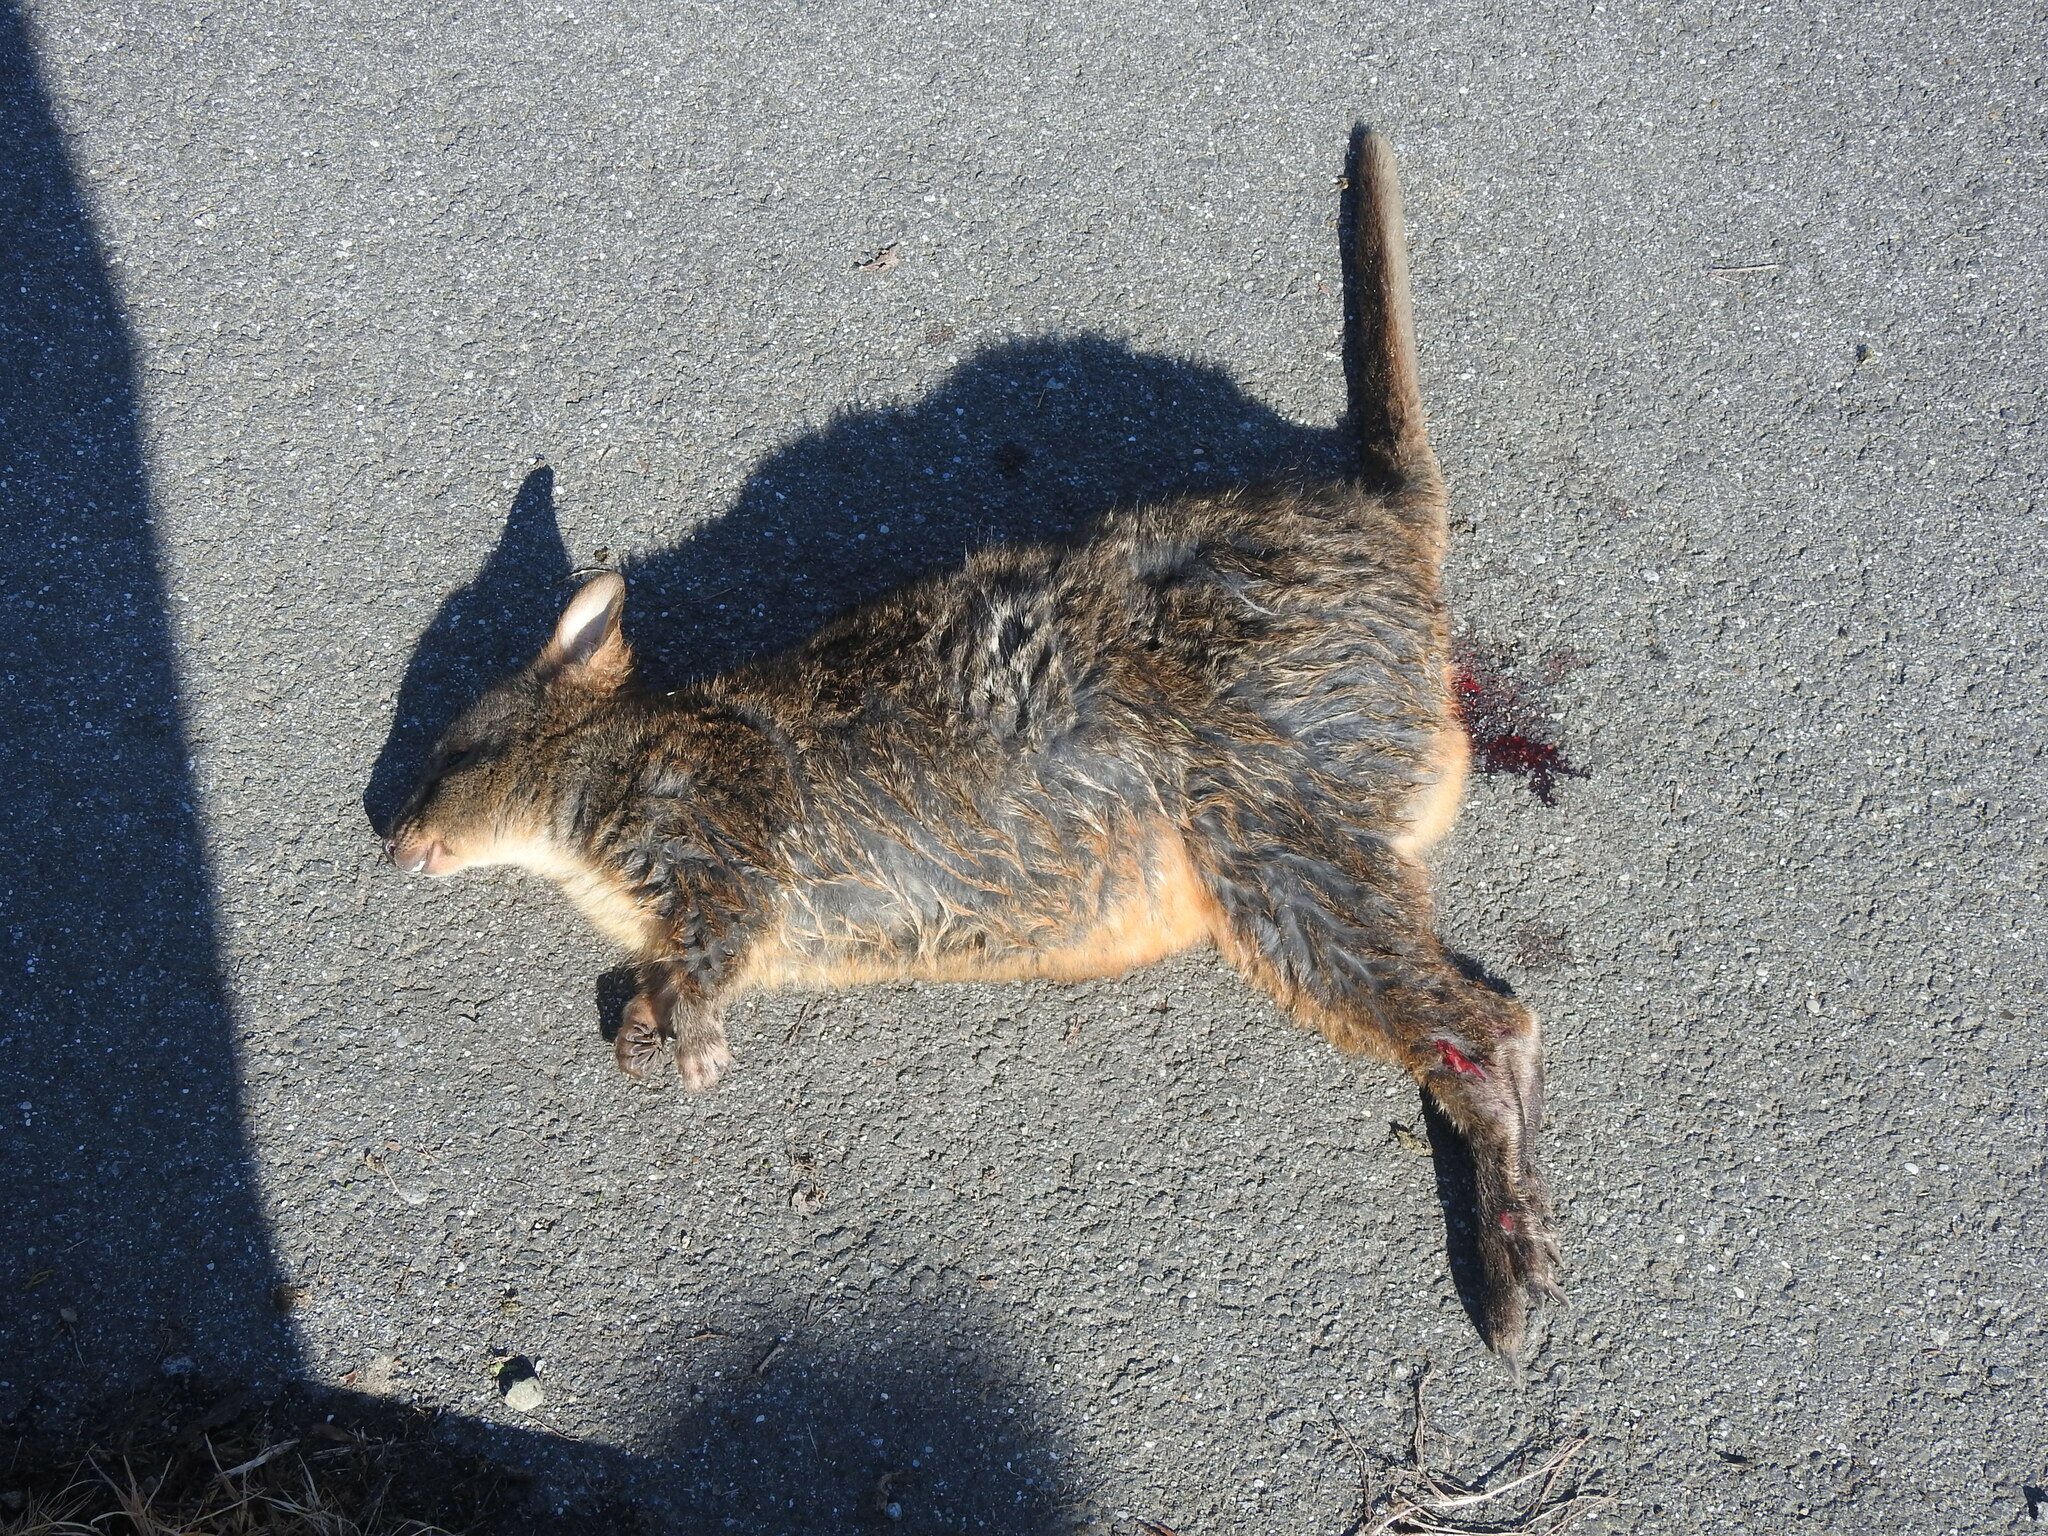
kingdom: Animalia
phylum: Chordata
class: Mammalia
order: Diprotodontia
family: Macropodidae
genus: Thylogale
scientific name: Thylogale billardierii
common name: Tasmanian pademelon
